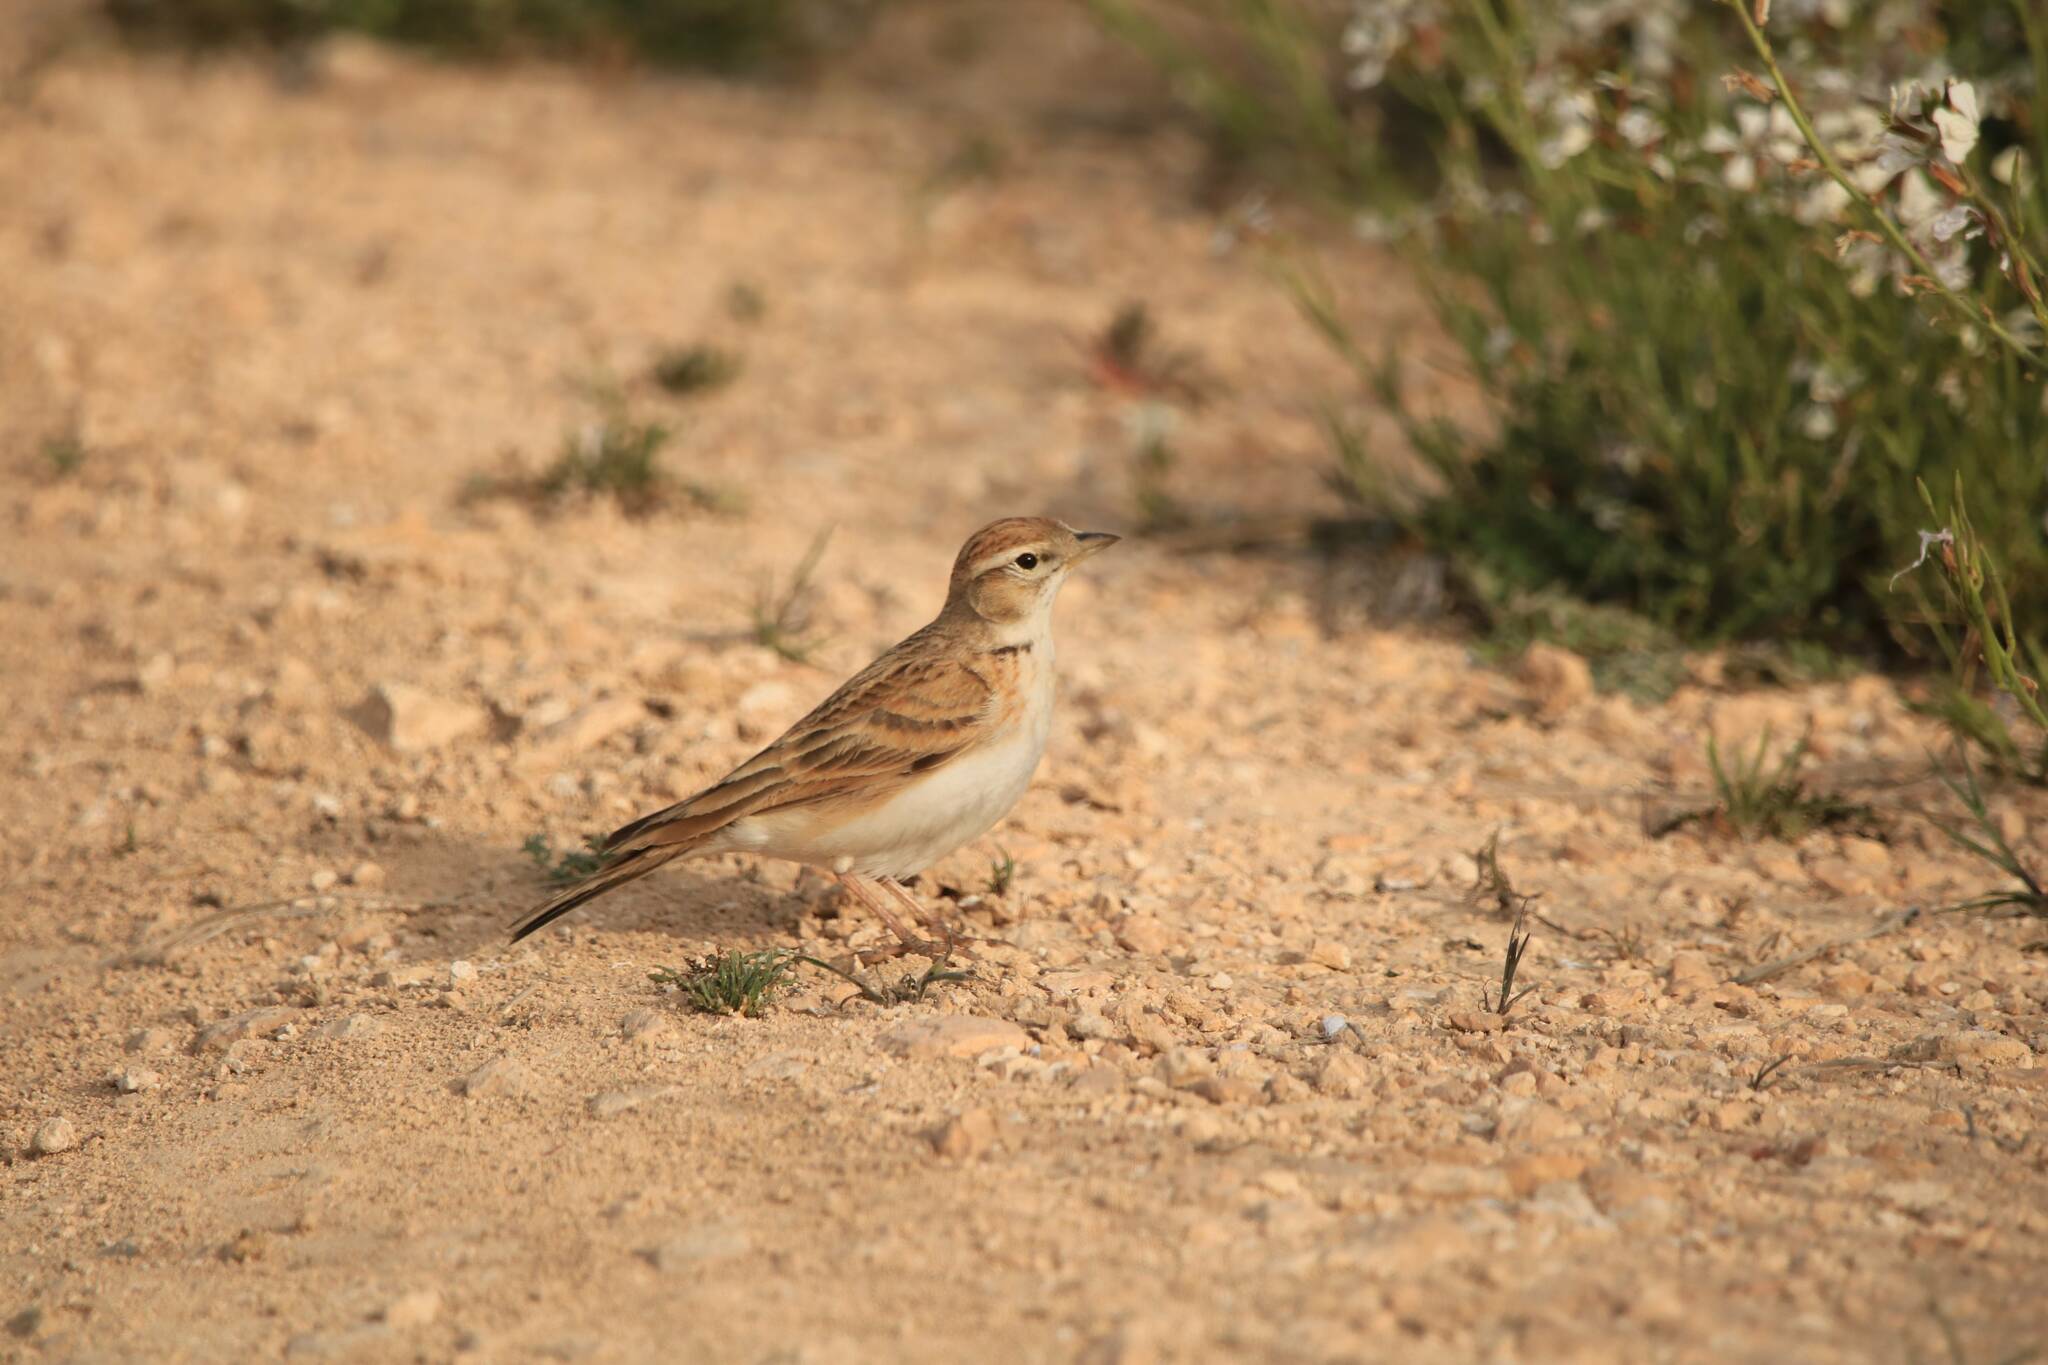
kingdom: Animalia
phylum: Chordata
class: Aves
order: Passeriformes
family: Alaudidae
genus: Calandrella
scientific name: Calandrella brachydactyla
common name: Greater short-toed lark
